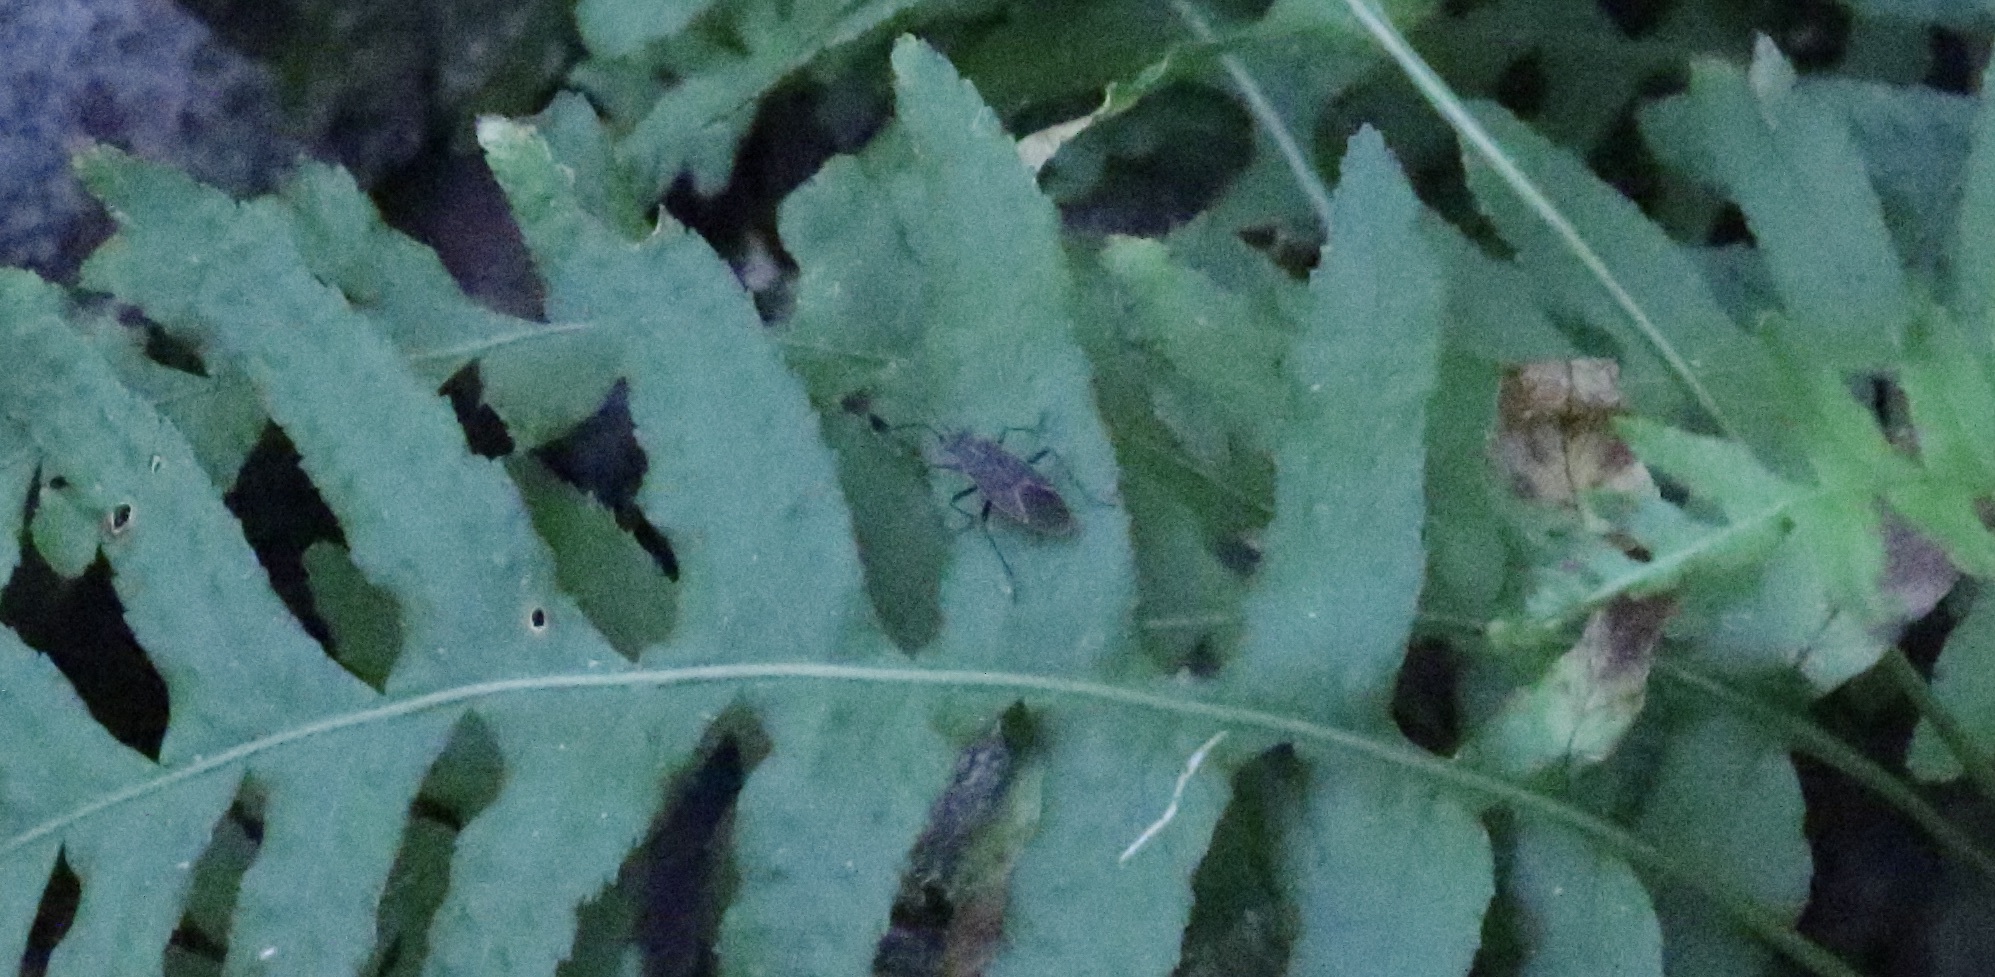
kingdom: Animalia
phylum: Arthropoda
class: Insecta
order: Hemiptera
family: Rhopalidae
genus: Boisea
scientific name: Boisea rubrolineata
